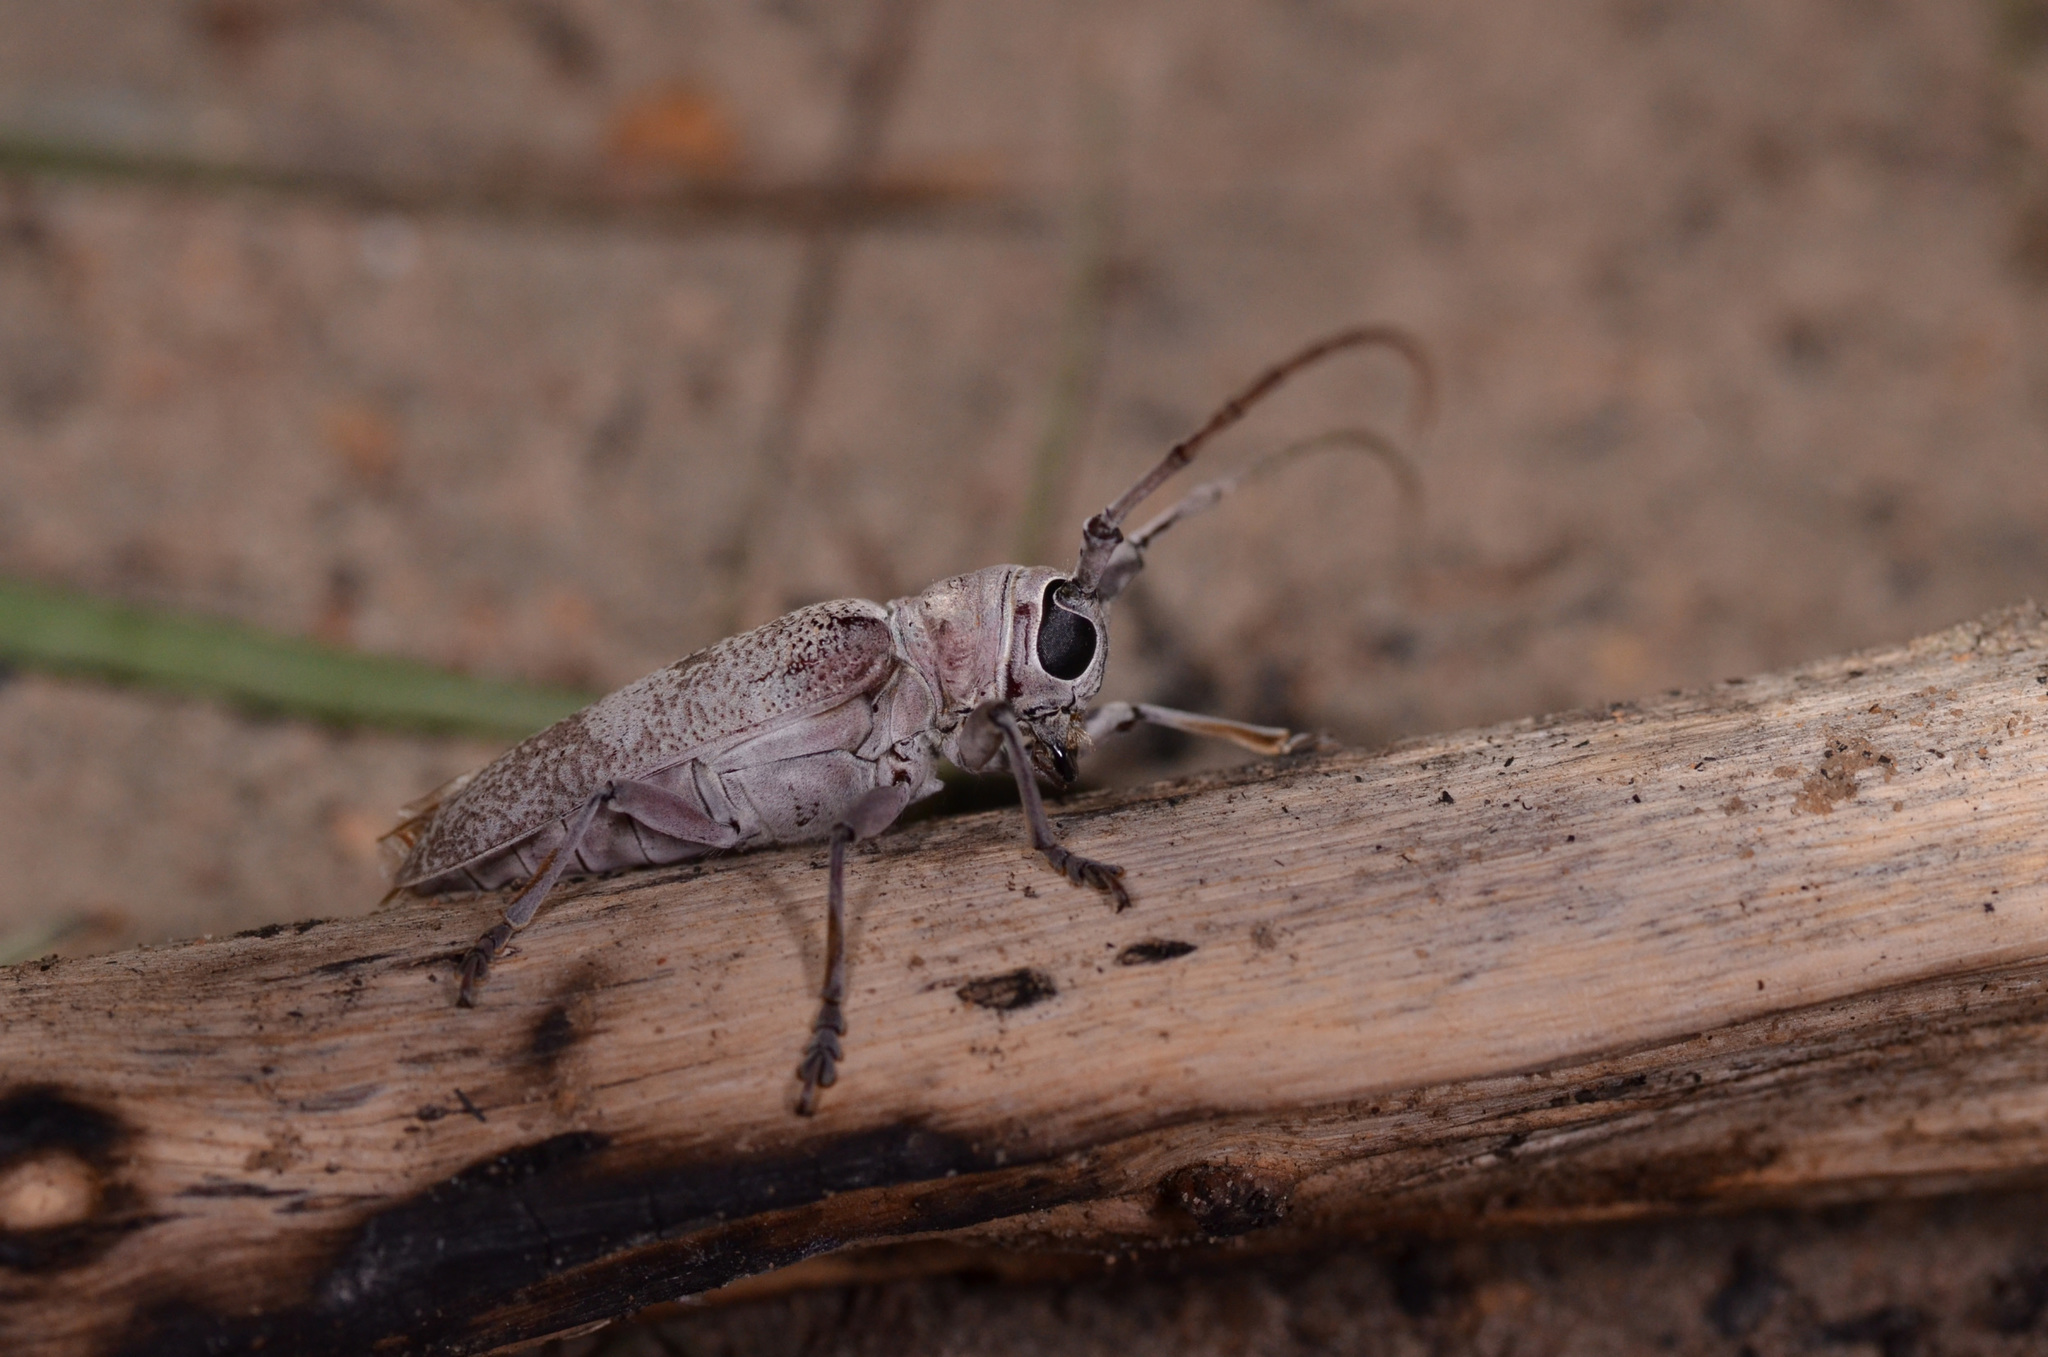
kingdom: Animalia
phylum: Arthropoda
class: Insecta
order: Coleoptera
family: Cerambycidae
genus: Prosopocera
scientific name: Prosopocera angolensis
